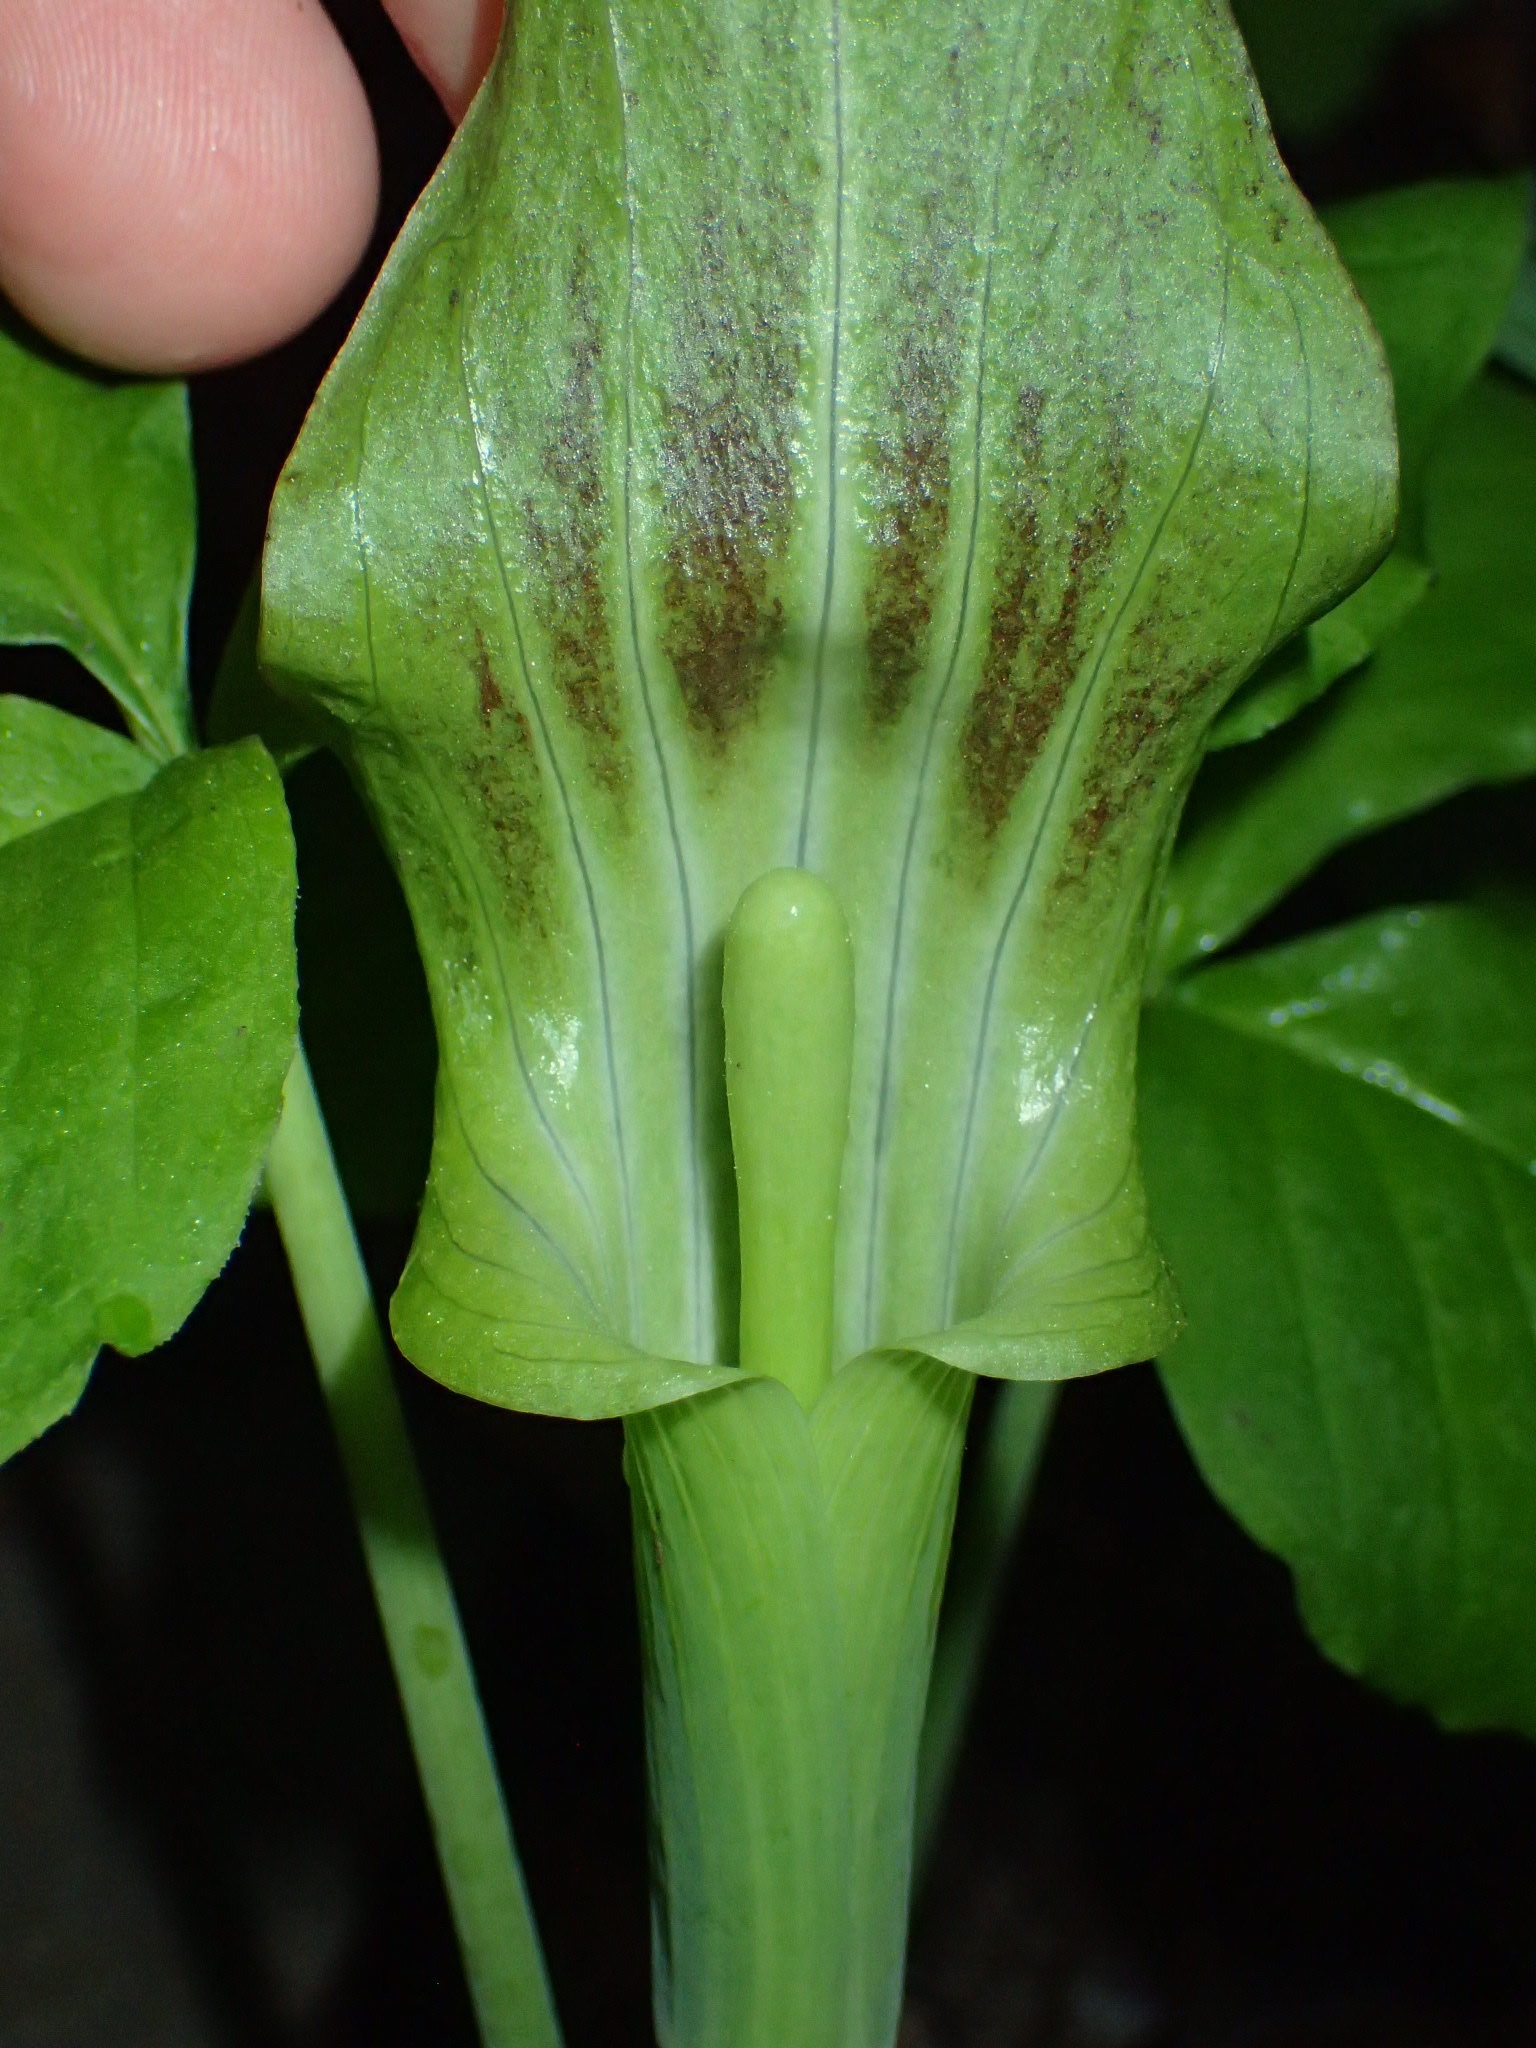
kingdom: Plantae
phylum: Tracheophyta
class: Liliopsida
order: Alismatales
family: Araceae
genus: Arisaema
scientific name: Arisaema triphyllum
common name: Jack-in-the-pulpit
